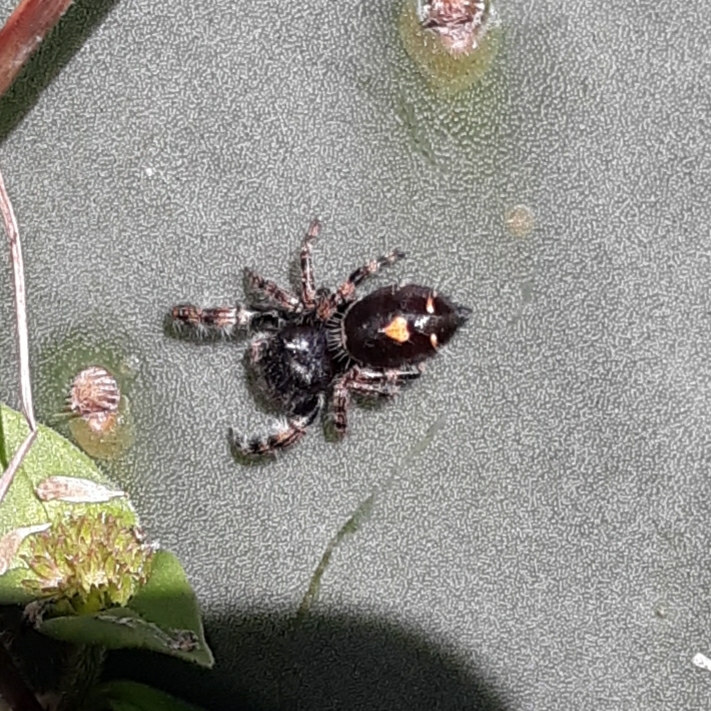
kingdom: Animalia
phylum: Arthropoda
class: Arachnida
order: Araneae
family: Salticidae
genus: Phidippus
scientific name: Phidippus audax
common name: Bold jumper
